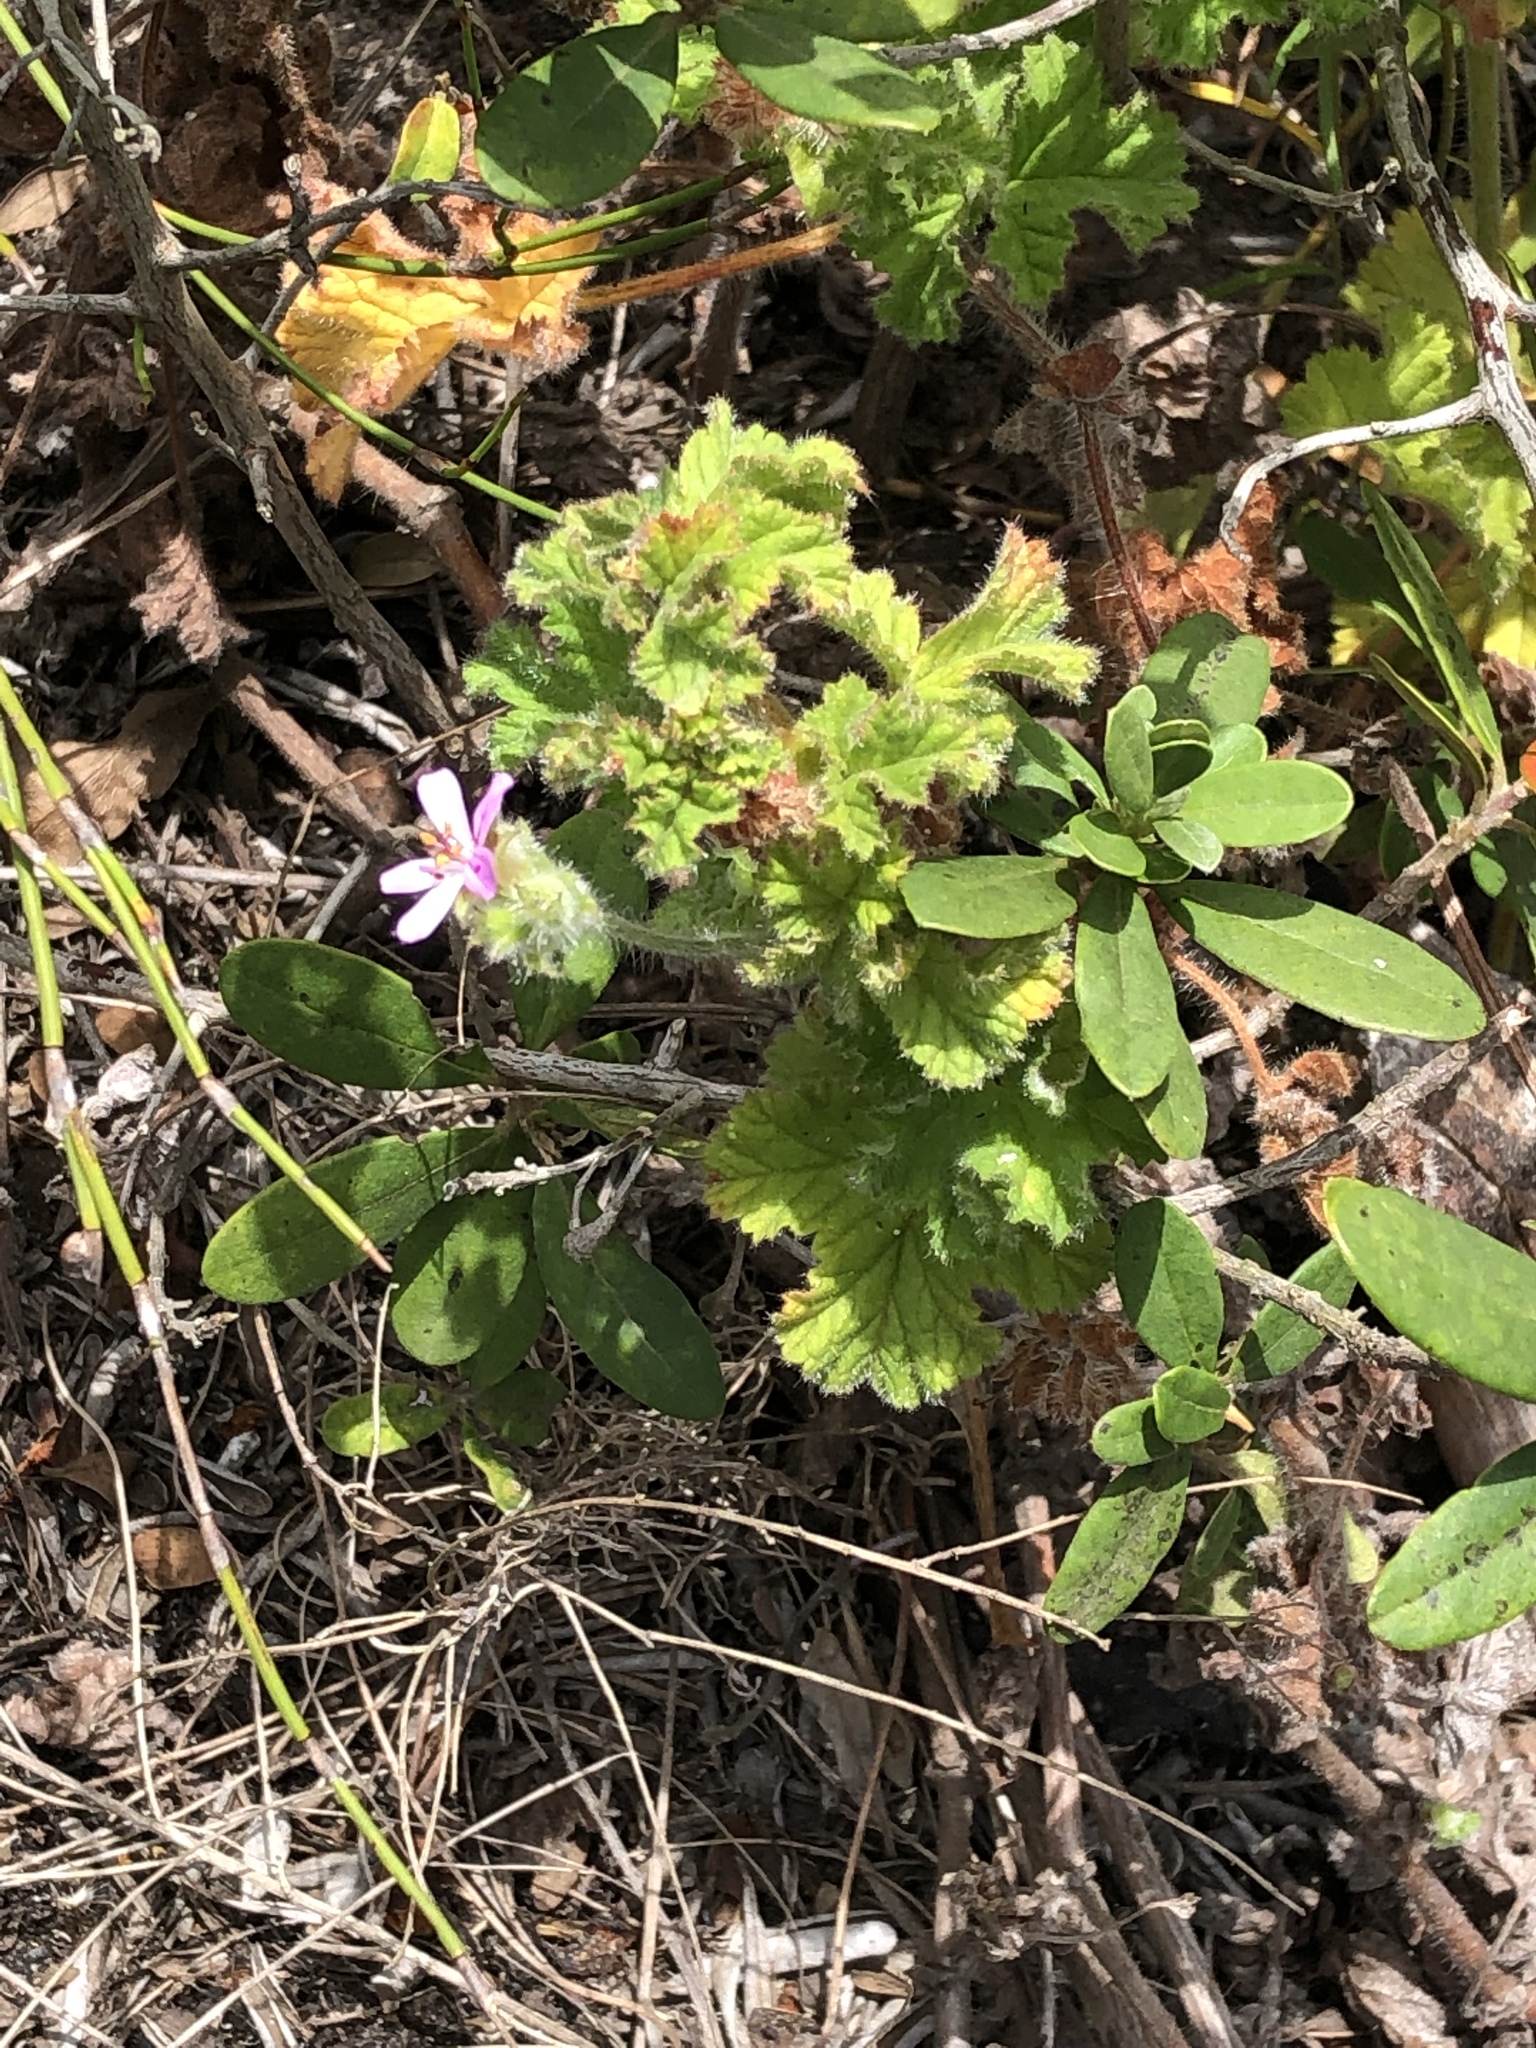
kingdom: Plantae
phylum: Tracheophyta
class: Magnoliopsida
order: Geraniales
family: Geraniaceae
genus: Pelargonium
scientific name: Pelargonium capitatum
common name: Rose scented geranium
